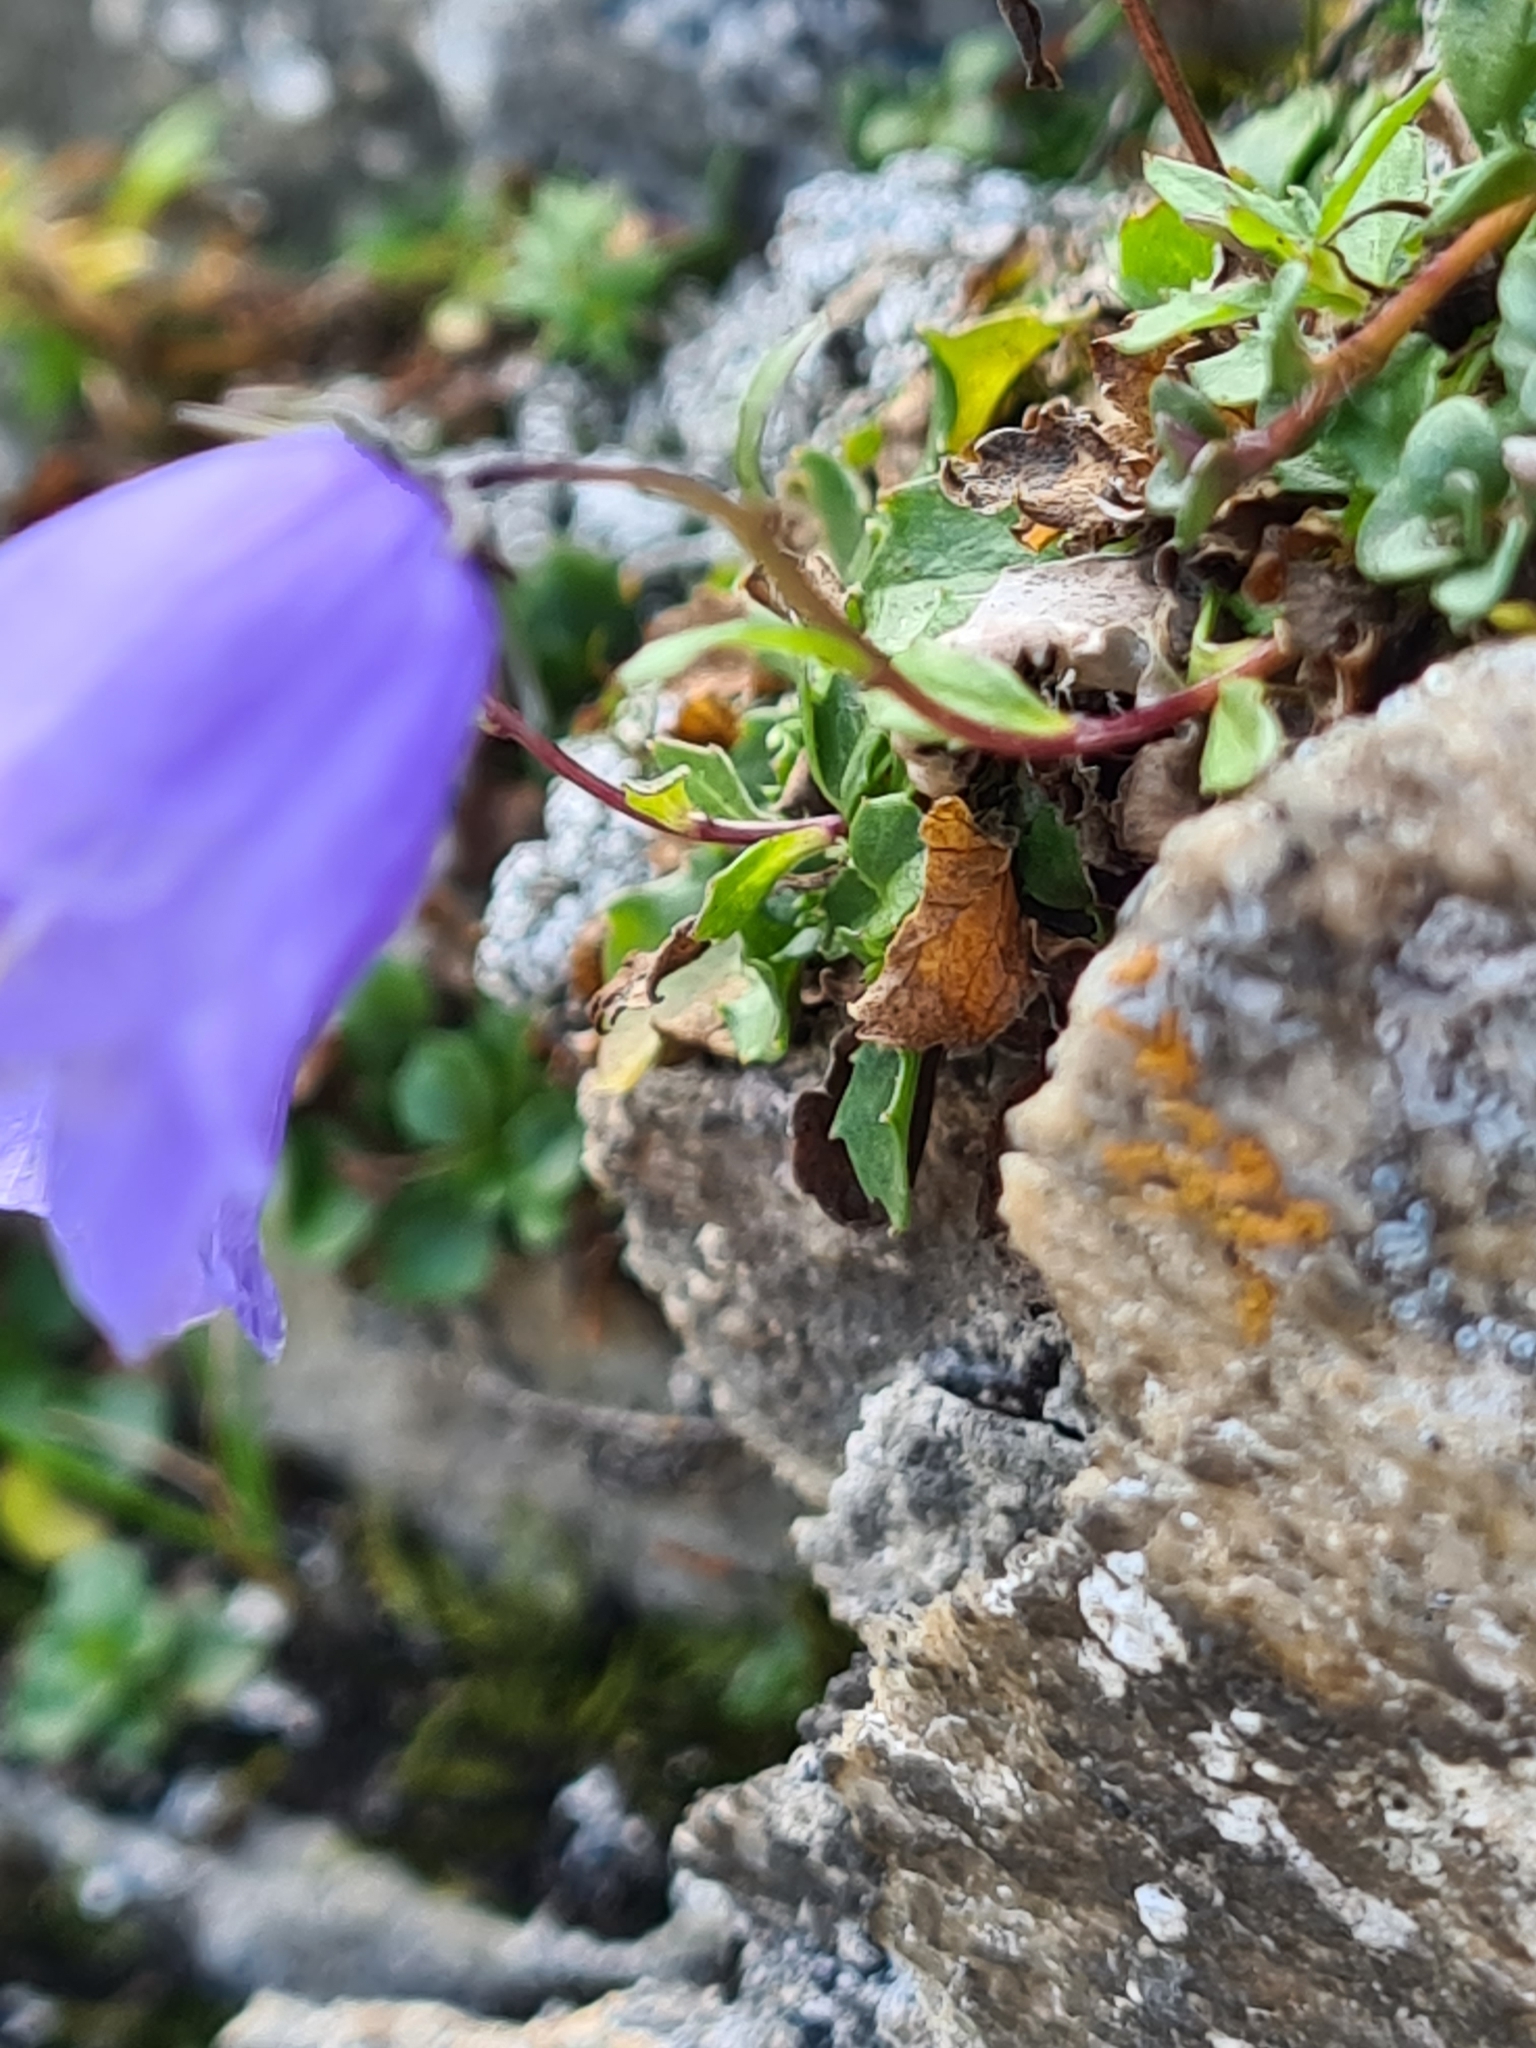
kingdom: Plantae
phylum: Tracheophyta
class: Magnoliopsida
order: Asterales
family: Campanulaceae
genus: Campanula
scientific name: Campanula cochleariifolia
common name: Fairies'-thimbles
